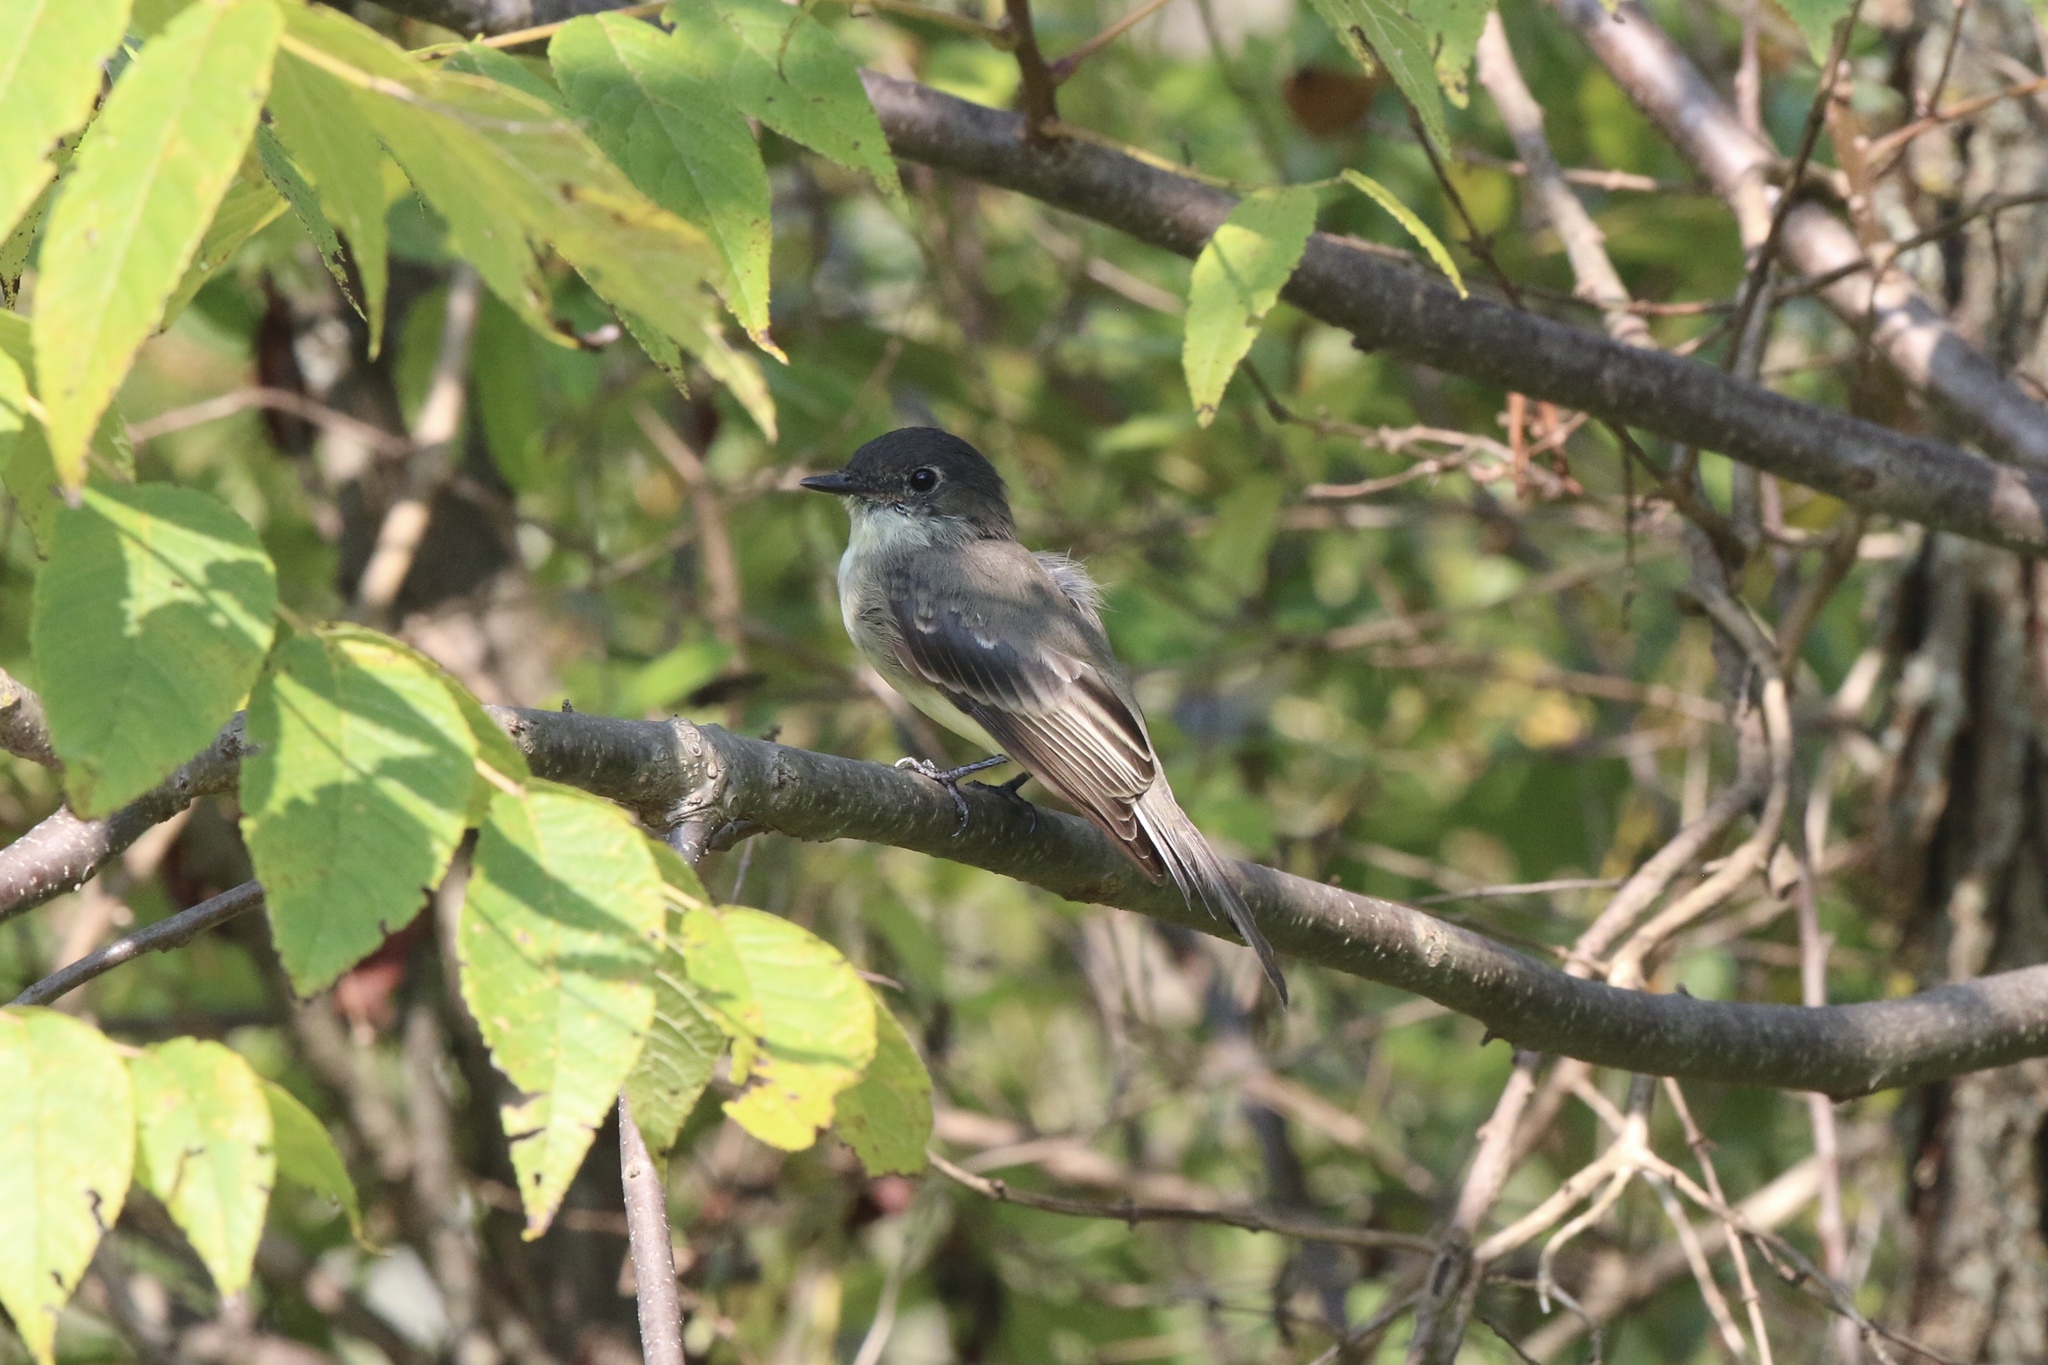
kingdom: Animalia
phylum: Chordata
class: Aves
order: Passeriformes
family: Tyrannidae
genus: Sayornis
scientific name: Sayornis phoebe
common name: Eastern phoebe
